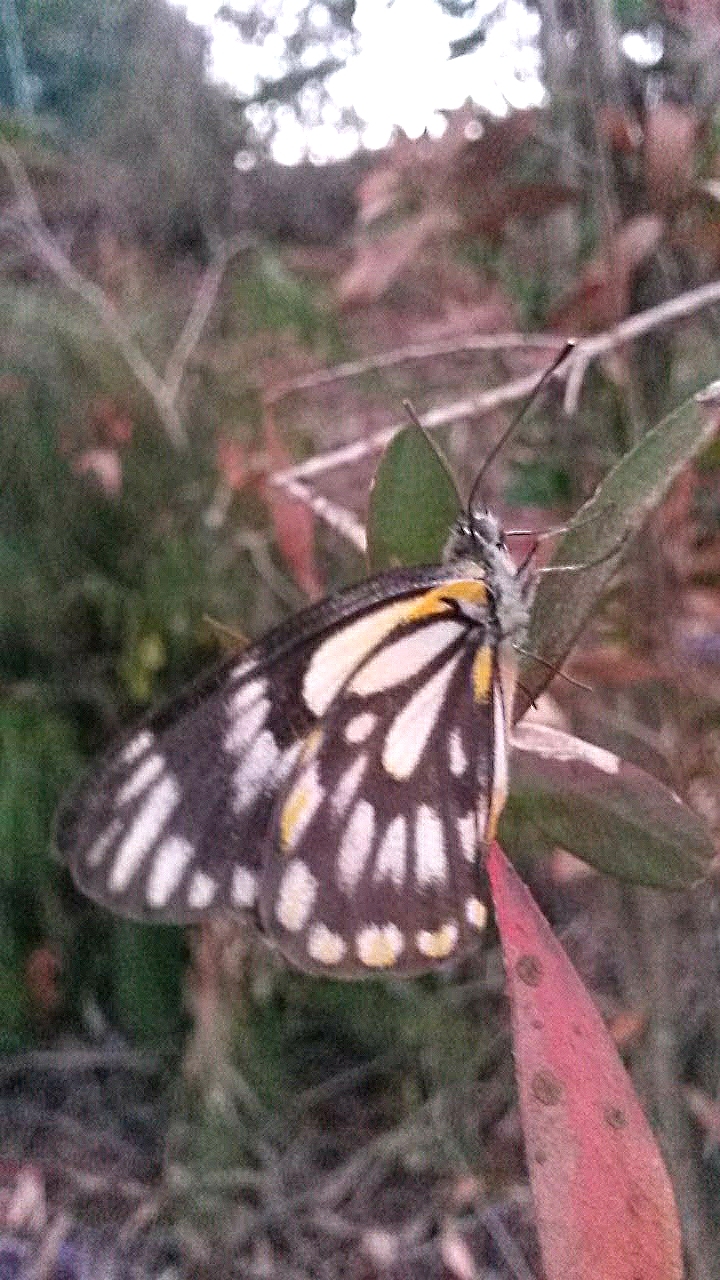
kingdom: Animalia
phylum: Arthropoda
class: Insecta
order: Lepidoptera
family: Pieridae
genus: Belenois
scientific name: Belenois java
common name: Caper white
